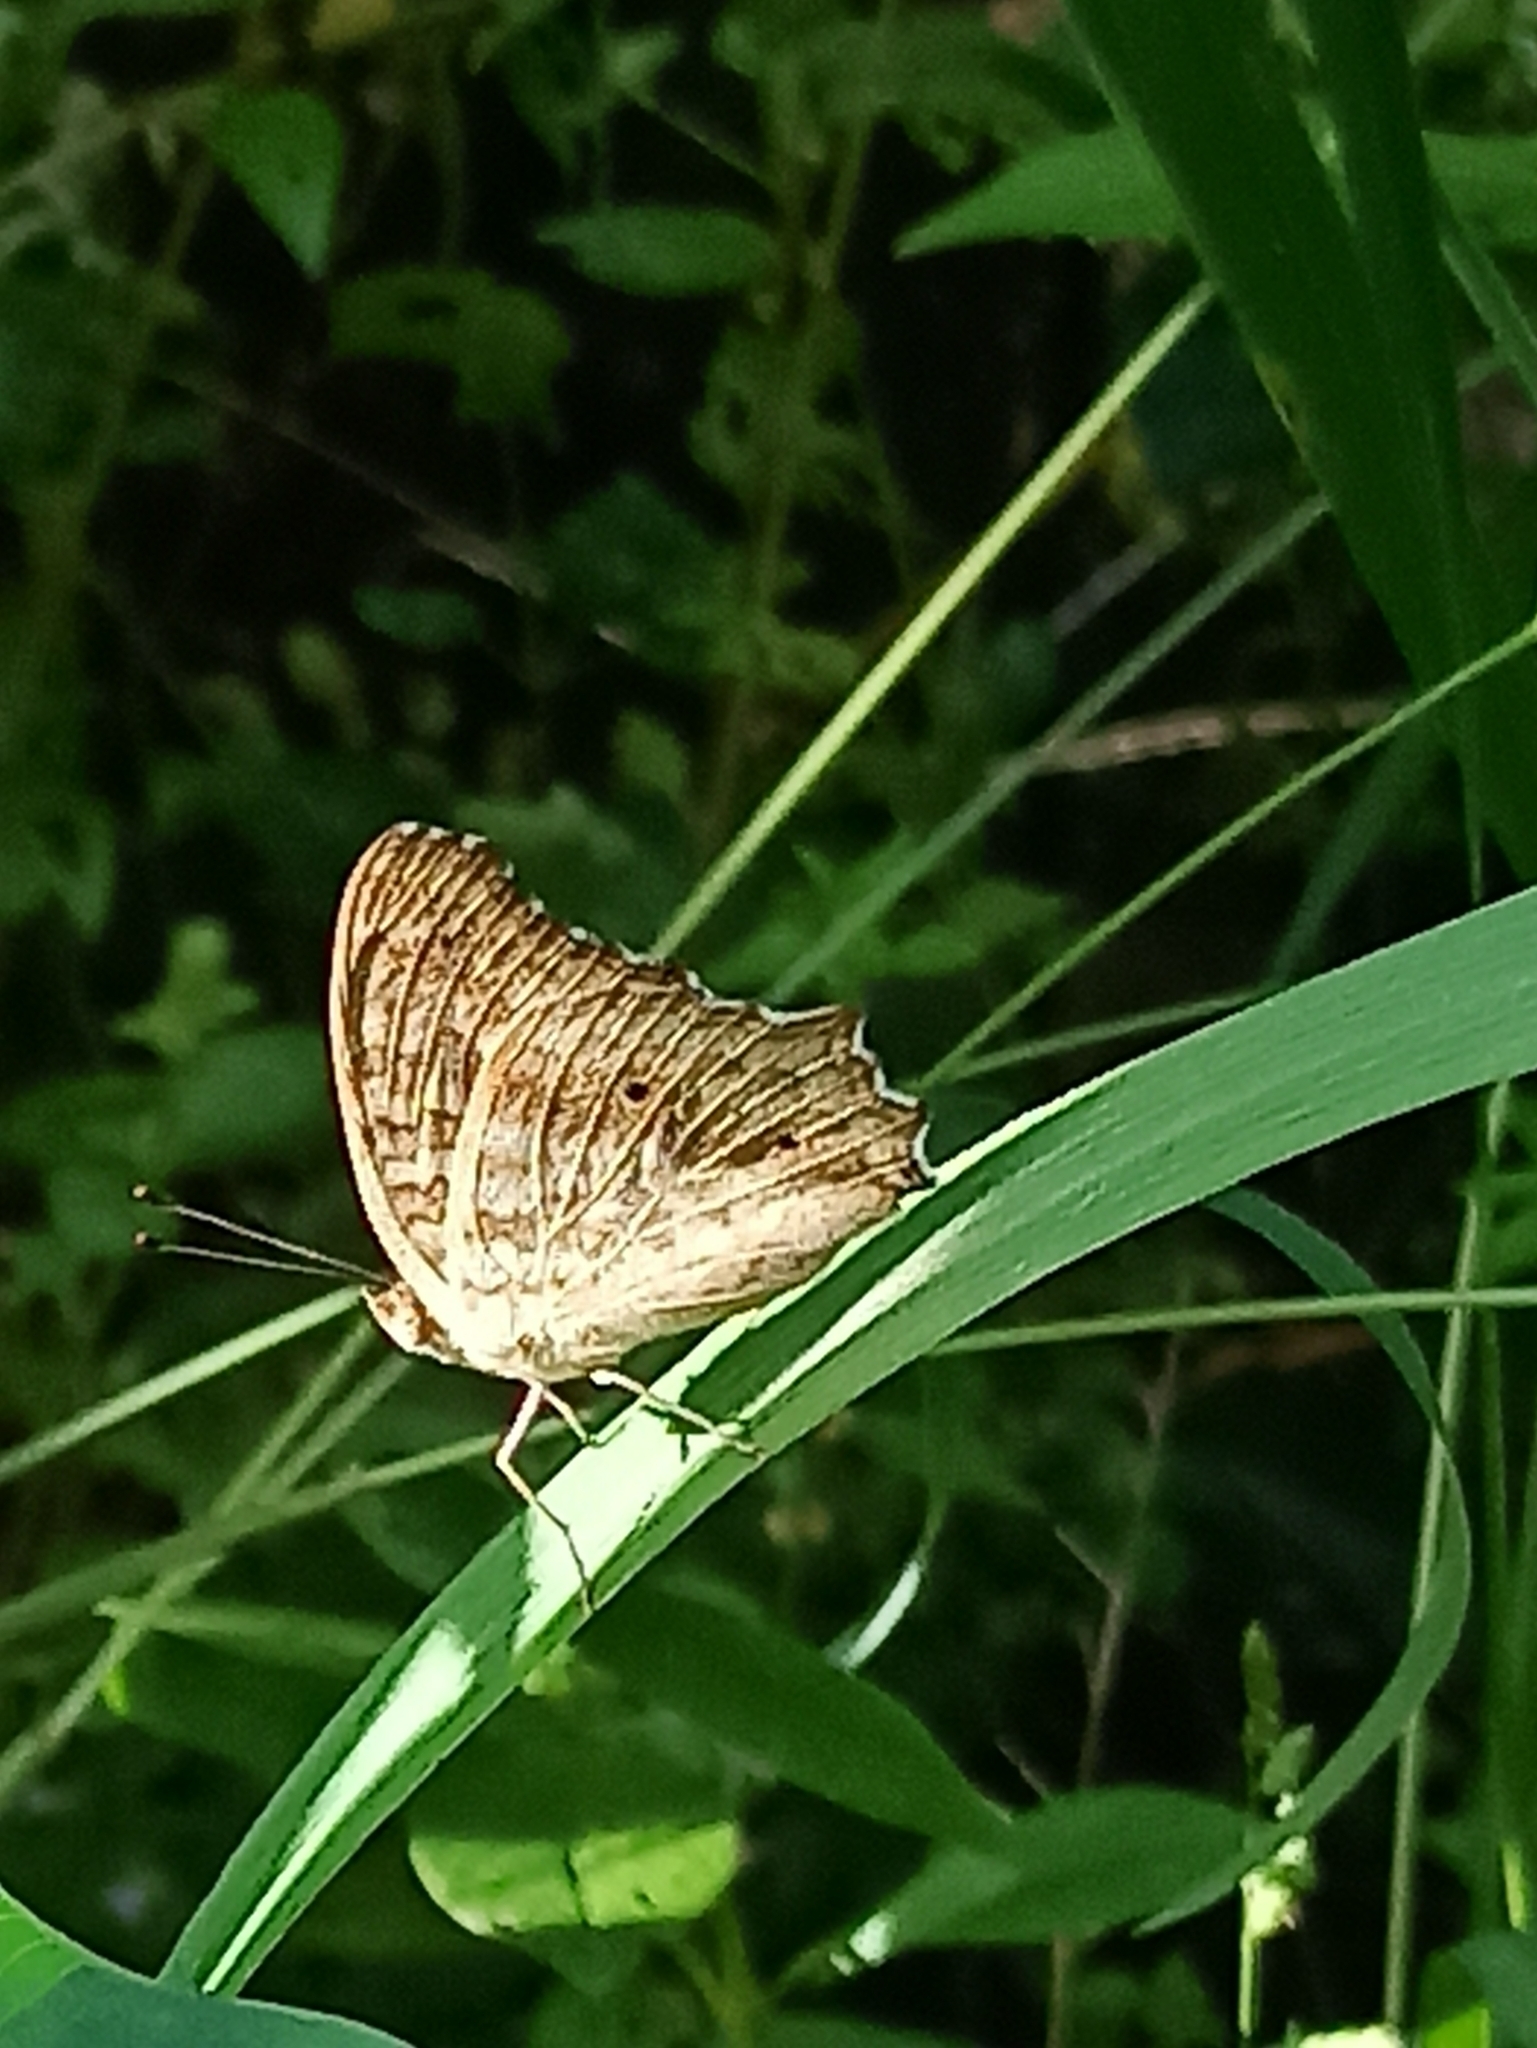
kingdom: Animalia
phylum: Arthropoda
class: Insecta
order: Lepidoptera
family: Nymphalidae
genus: Junonia
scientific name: Junonia lemonias
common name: Lemon pansy
